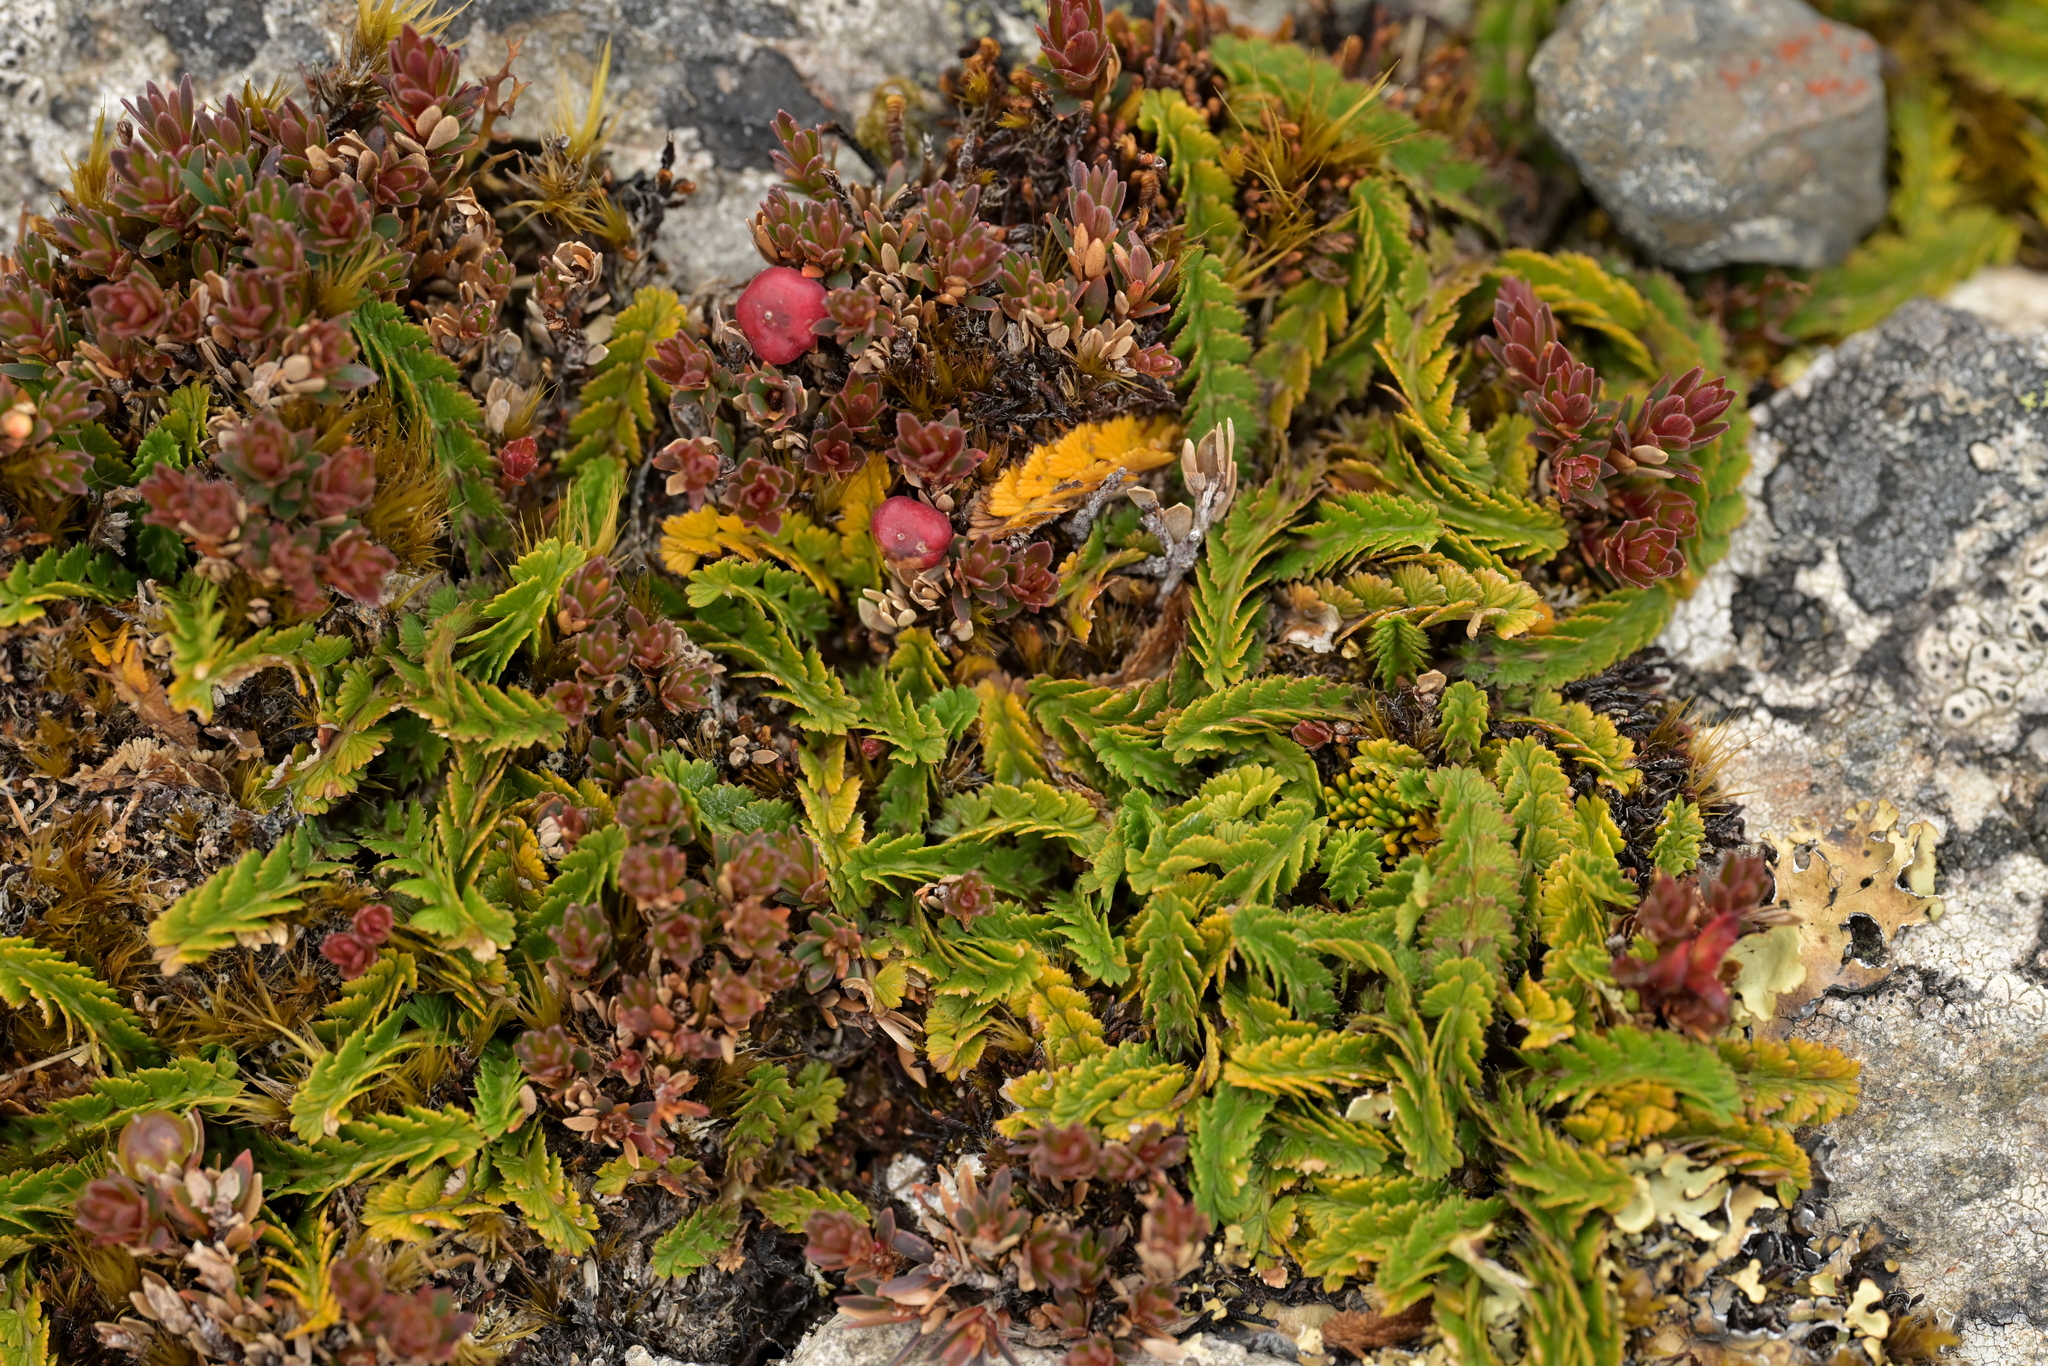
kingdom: Plantae
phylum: Tracheophyta
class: Magnoliopsida
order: Apiales
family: Apiaceae
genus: Anisotome
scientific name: Anisotome aromatica
